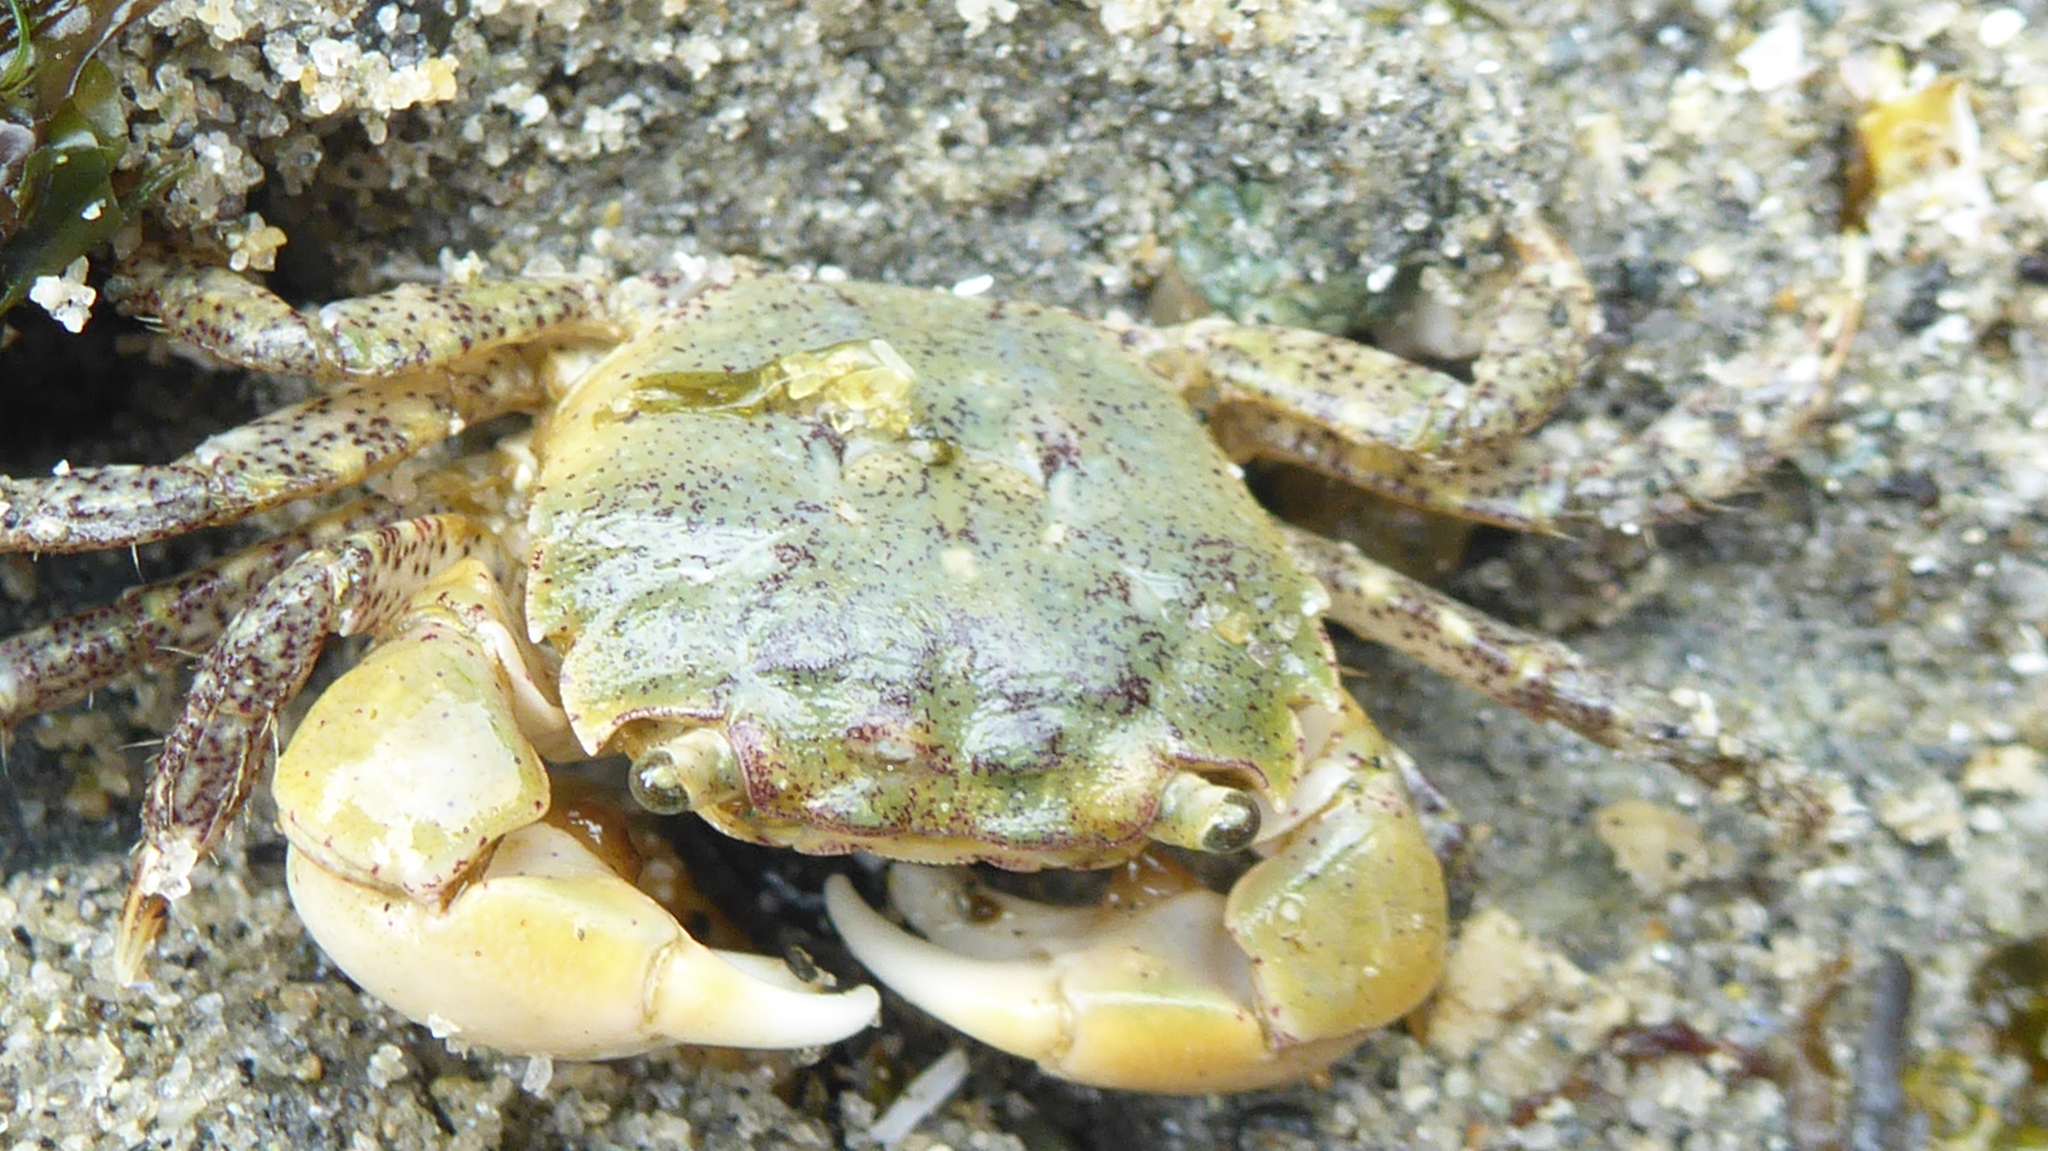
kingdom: Animalia
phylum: Arthropoda
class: Malacostraca
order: Decapoda
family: Varunidae
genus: Hemigrapsus
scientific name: Hemigrapsus oregonensis
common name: Yellow shore crab
